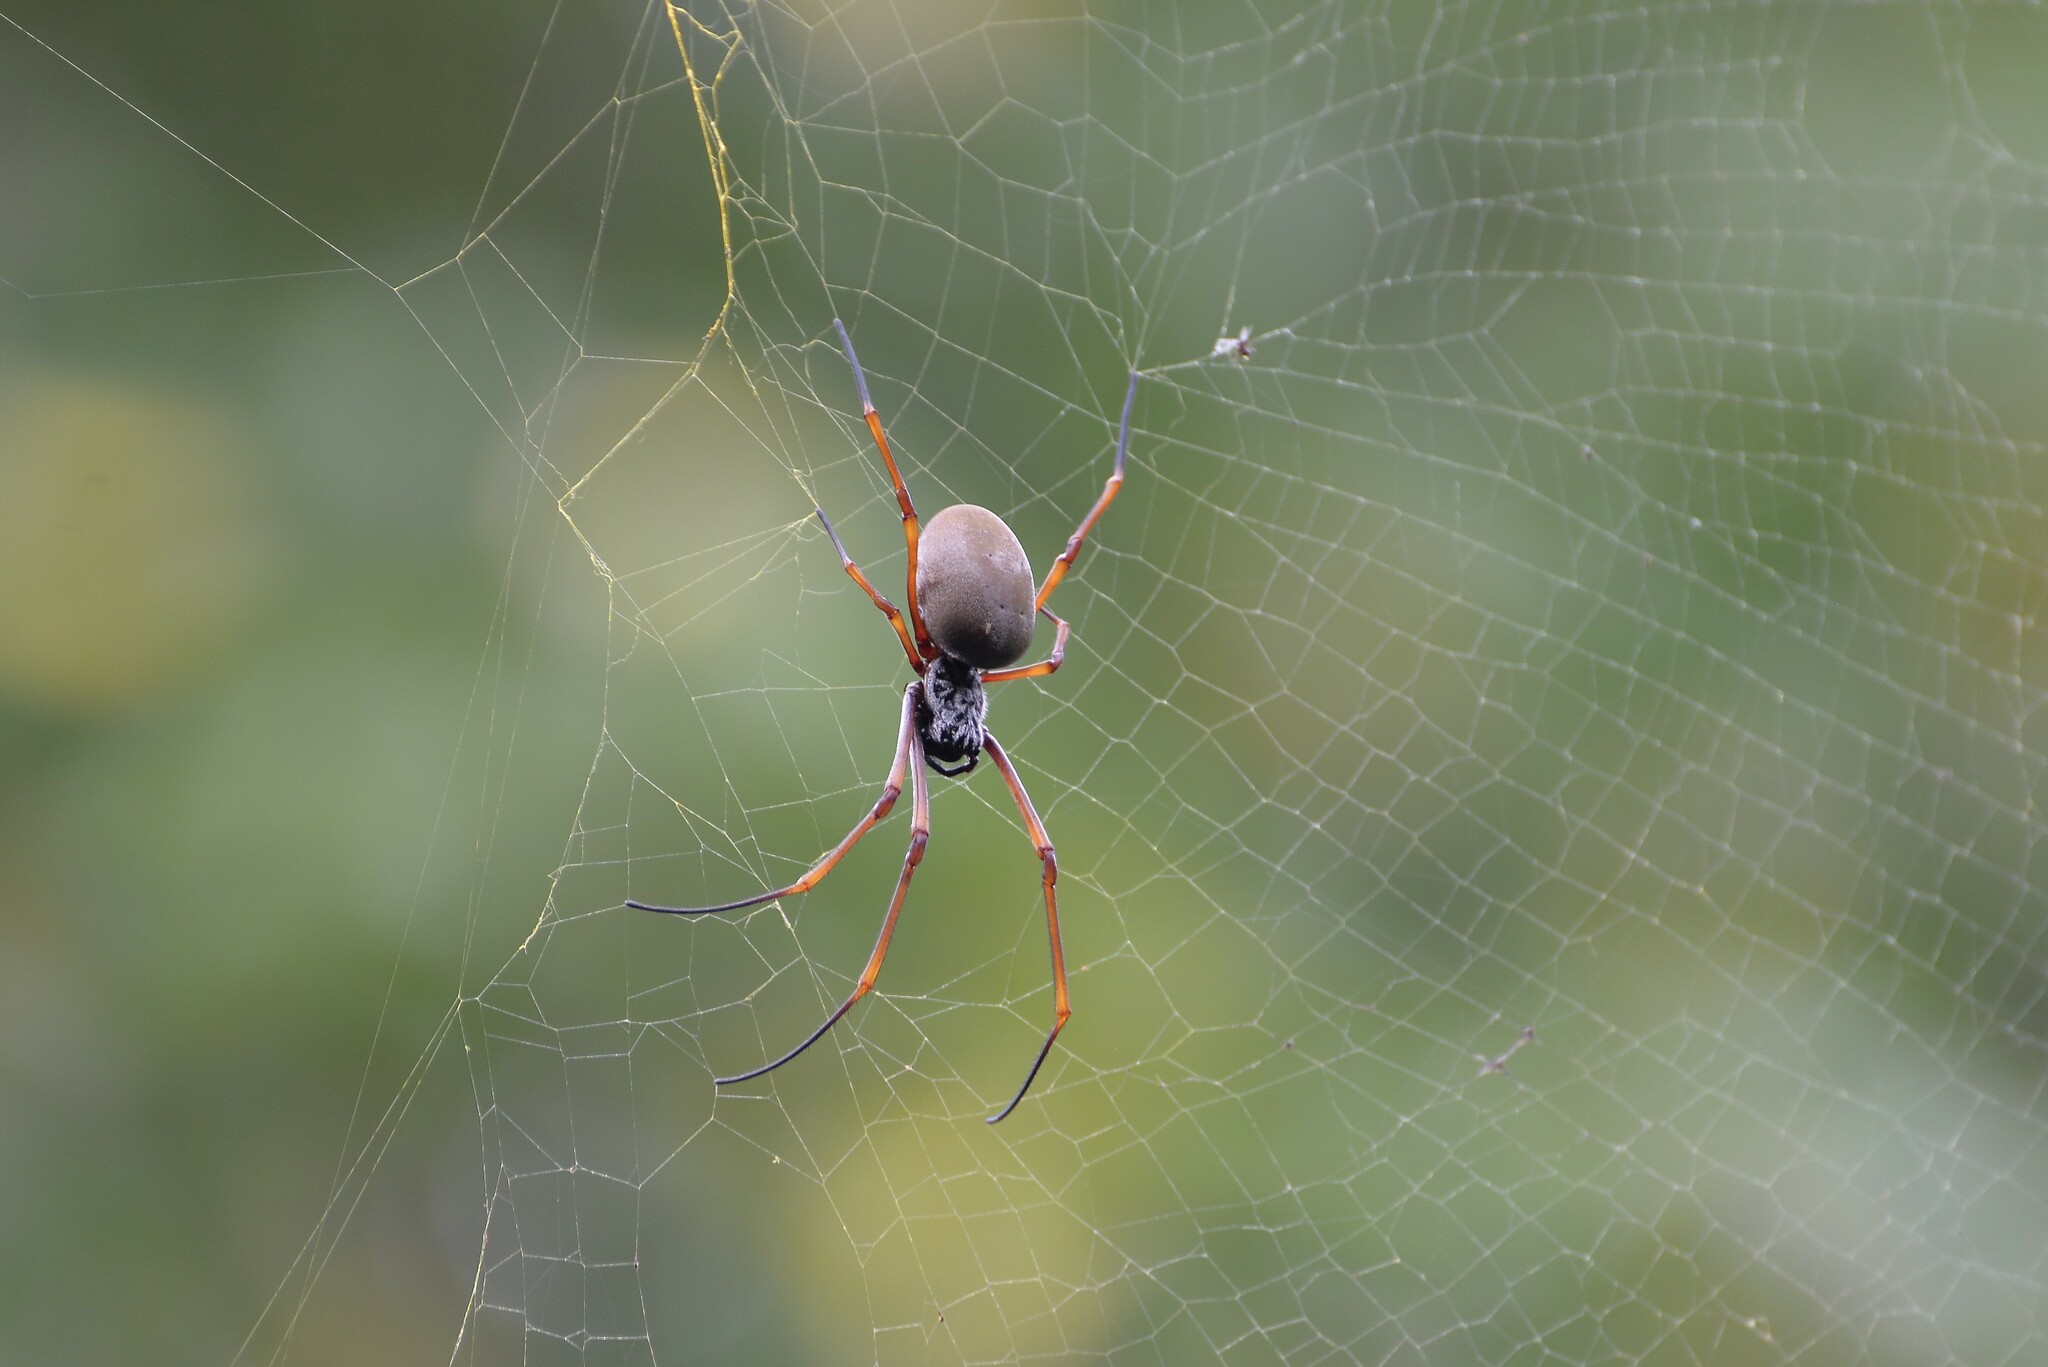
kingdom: Animalia
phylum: Arthropoda
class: Arachnida
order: Araneae
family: Araneidae
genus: Trichonephila
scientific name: Trichonephila plumipes
